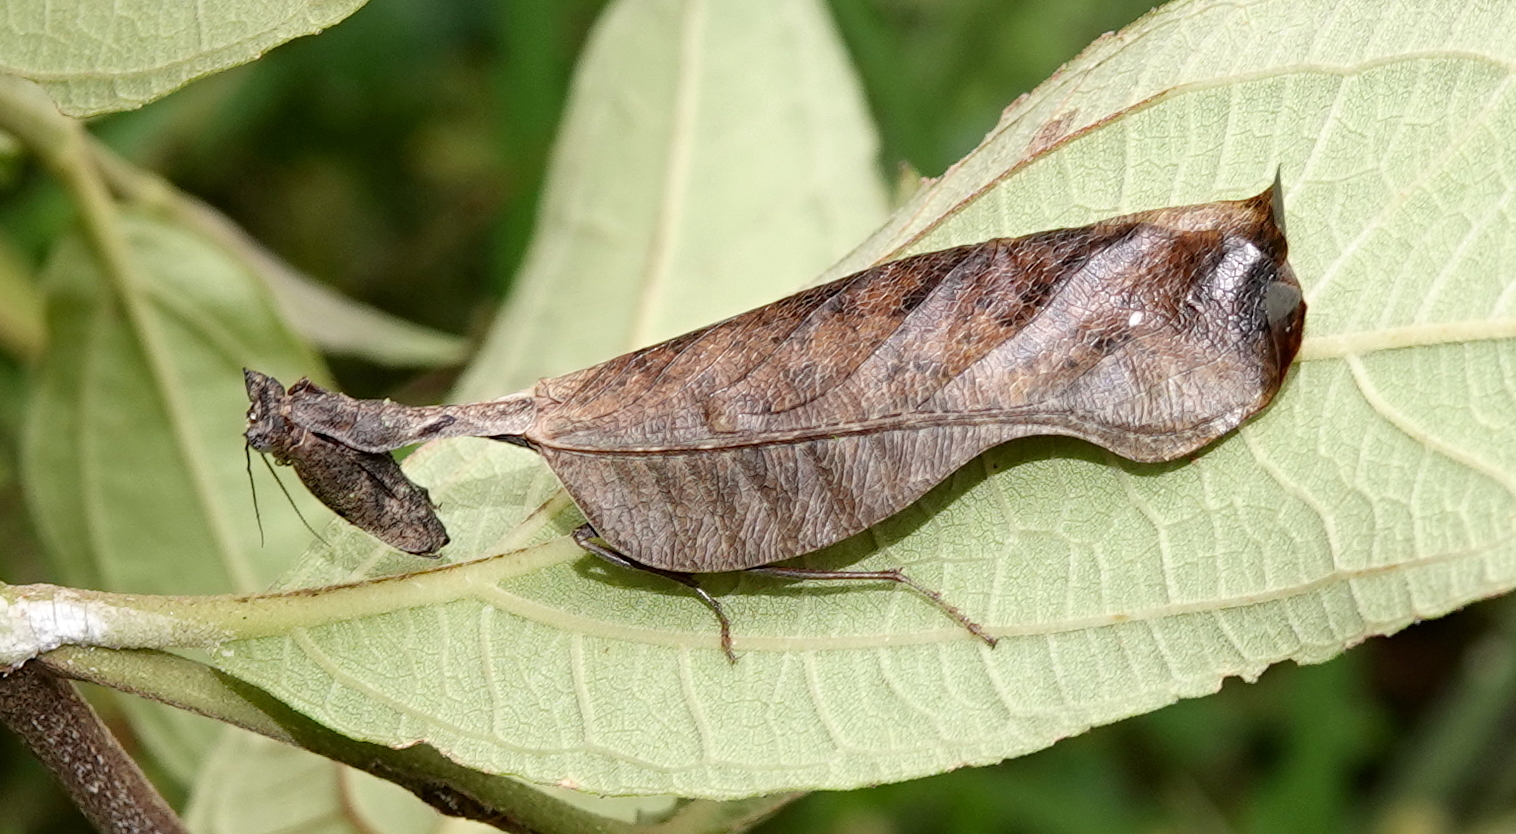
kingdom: Animalia
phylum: Arthropoda
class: Insecta
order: Mantodea
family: Acanthopidae
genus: Acanthops
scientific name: Acanthops falcata
